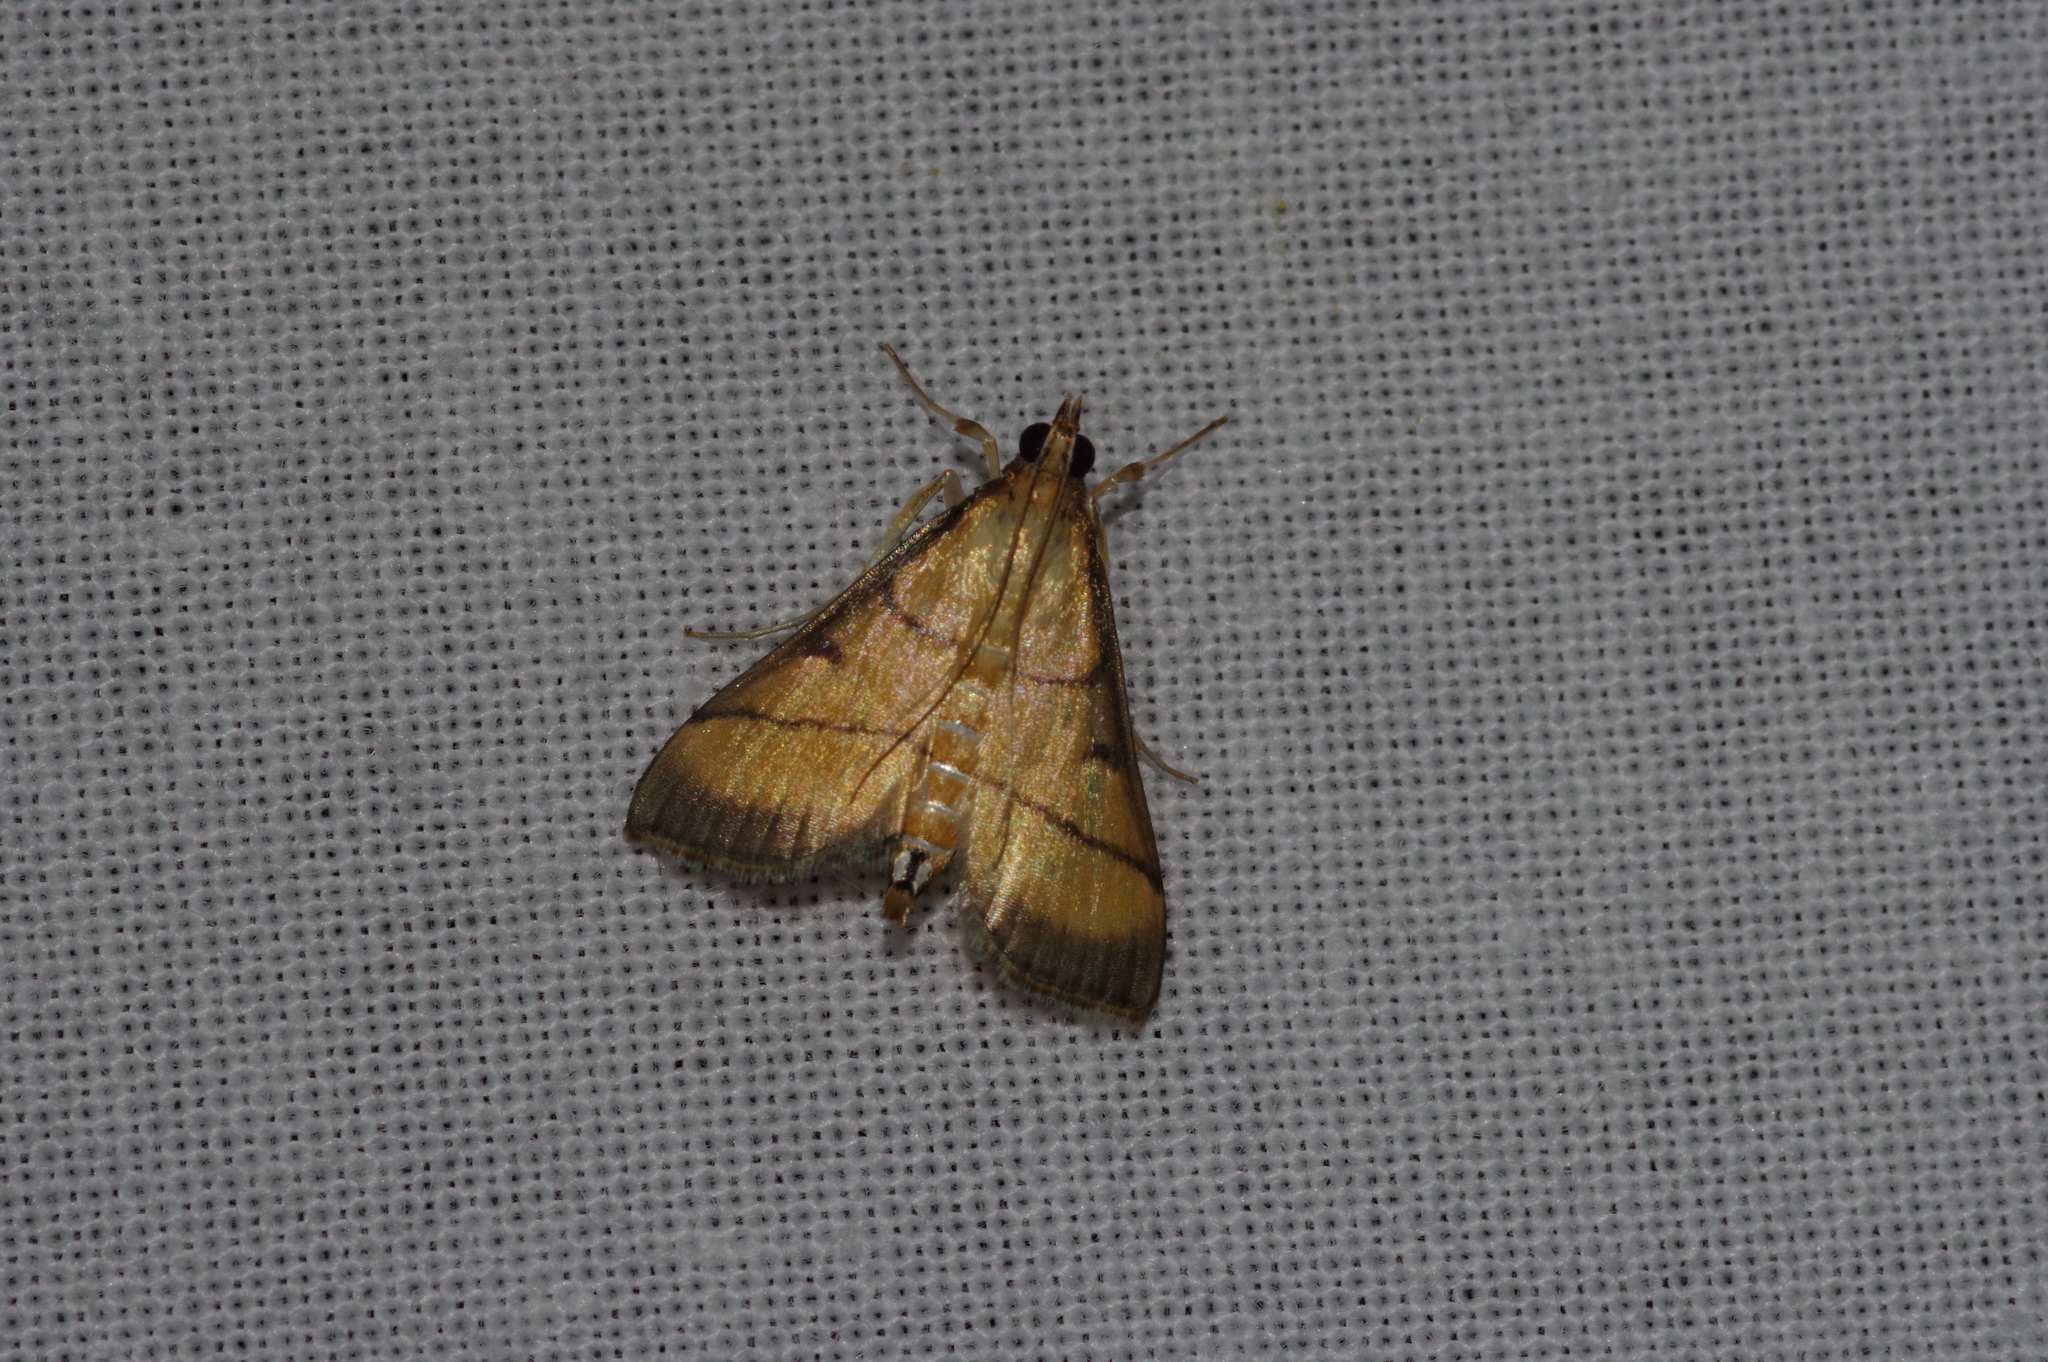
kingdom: Animalia
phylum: Arthropoda
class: Insecta
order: Lepidoptera
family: Crambidae
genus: Cnaphalocrocis
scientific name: Cnaphalocrocis medinalis
